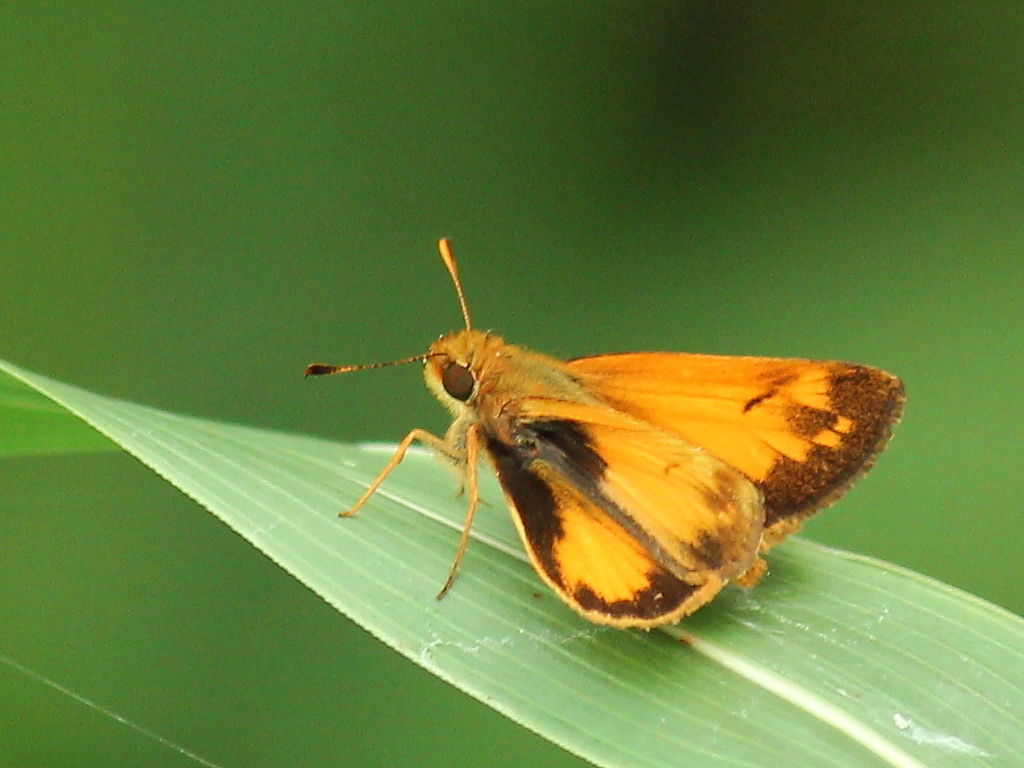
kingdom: Animalia
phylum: Arthropoda
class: Insecta
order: Lepidoptera
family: Hesperiidae
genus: Lon
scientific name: Lon zabulon
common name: Zabulon skipper
